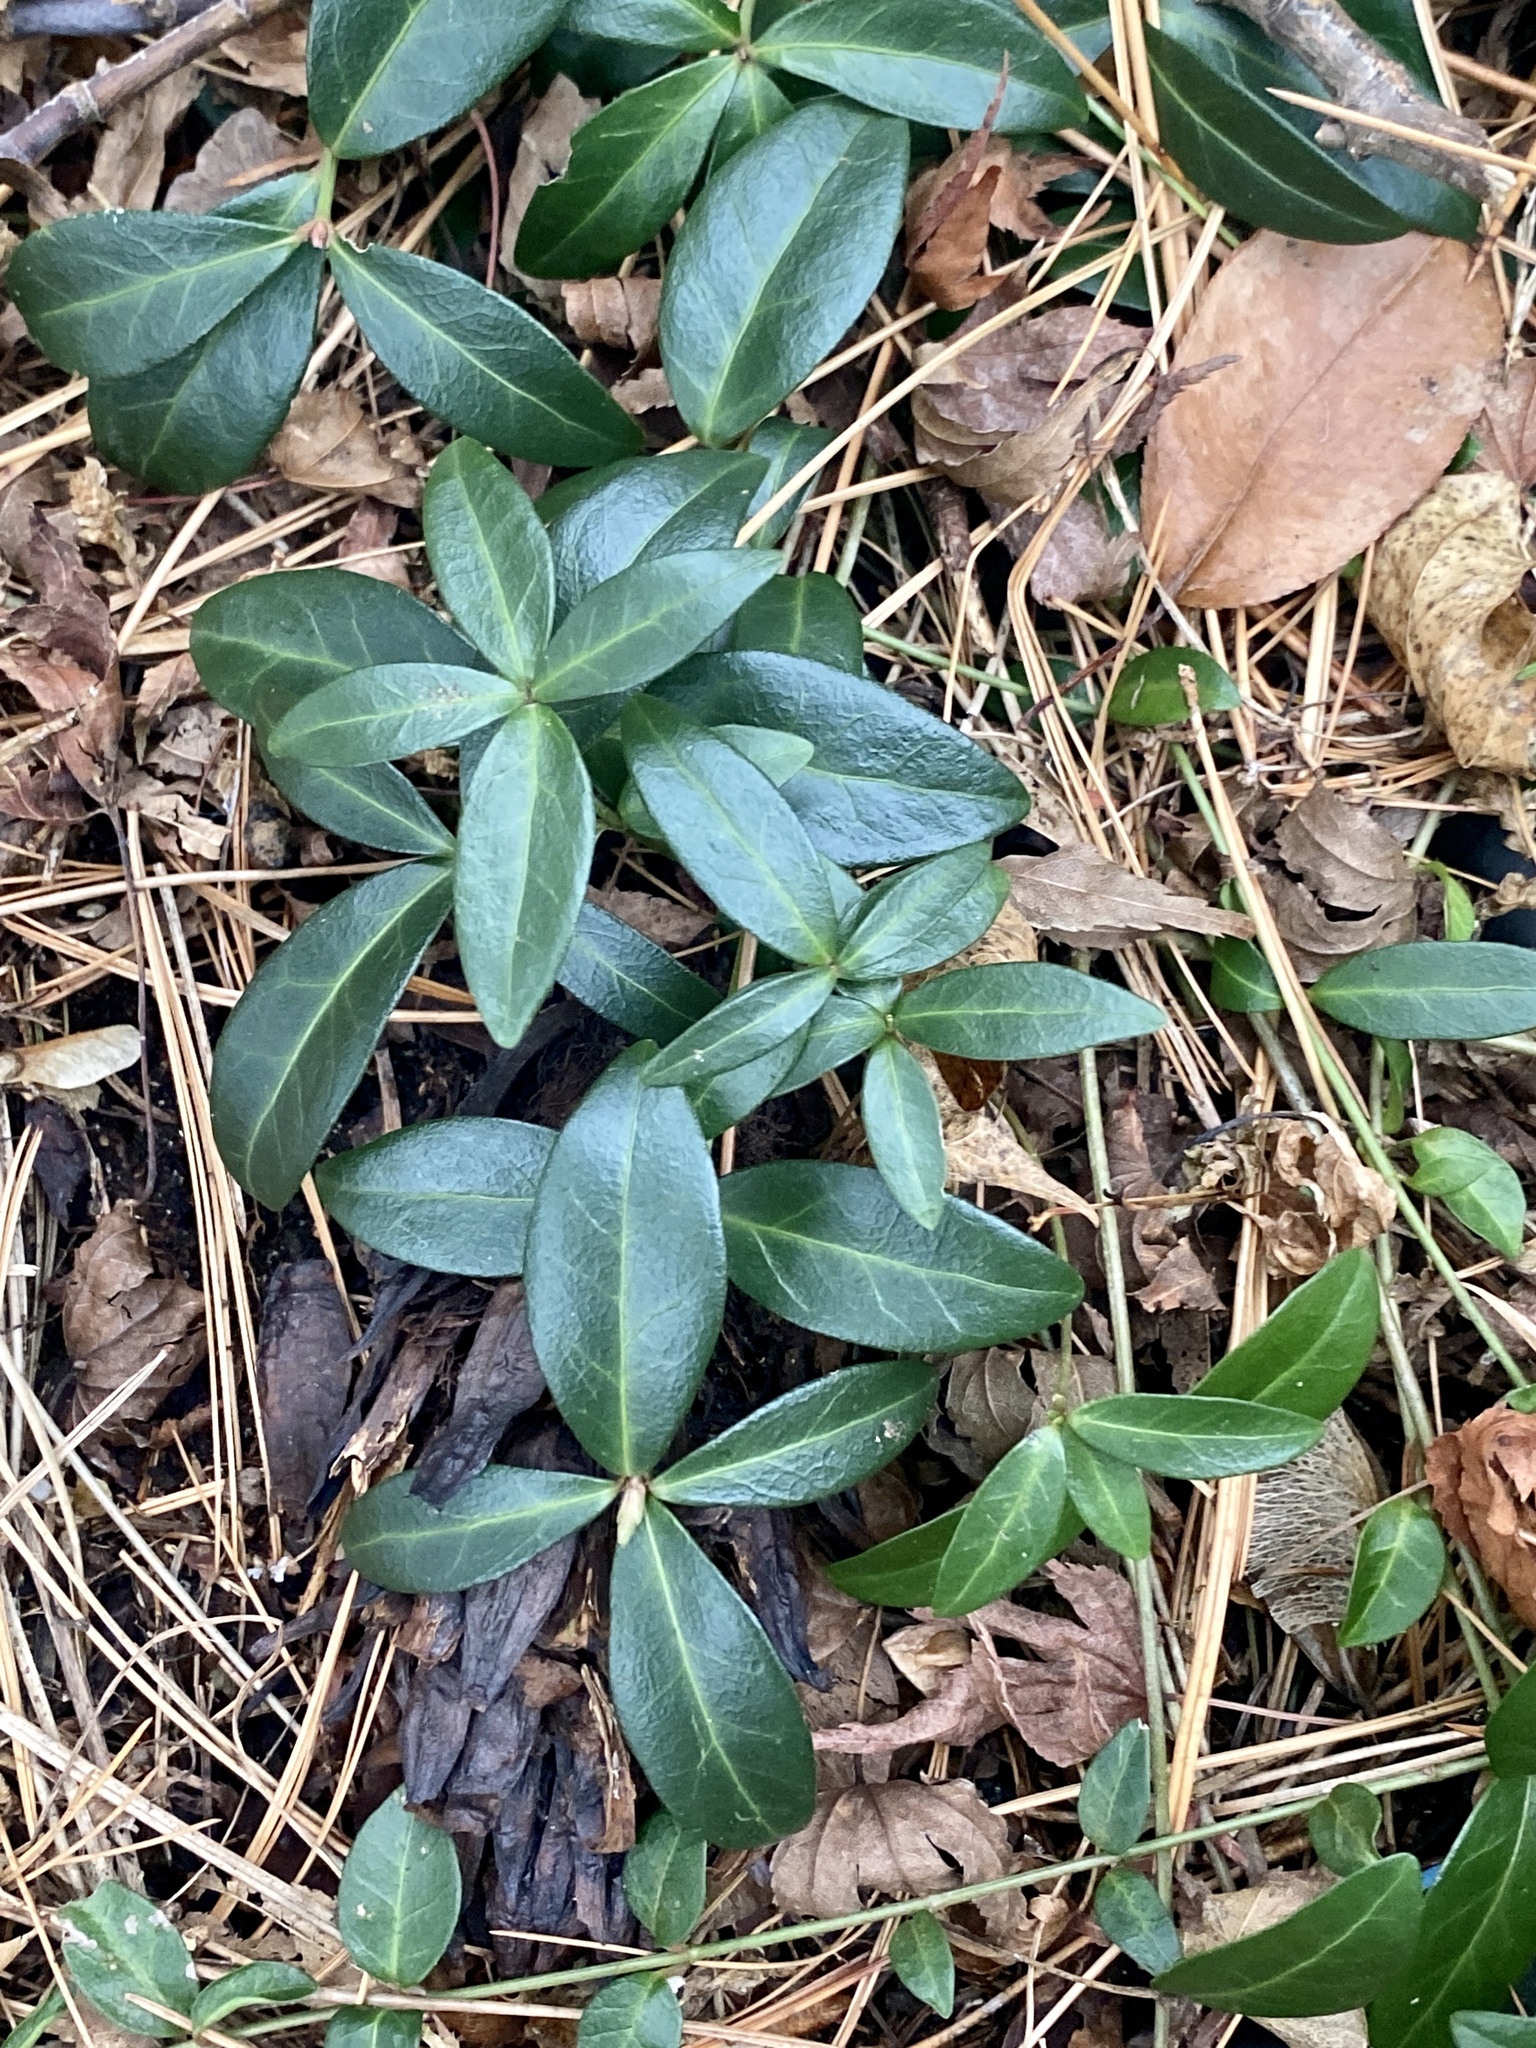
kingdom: Plantae
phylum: Tracheophyta
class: Magnoliopsida
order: Gentianales
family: Apocynaceae
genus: Vinca
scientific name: Vinca minor
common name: Lesser periwinkle
